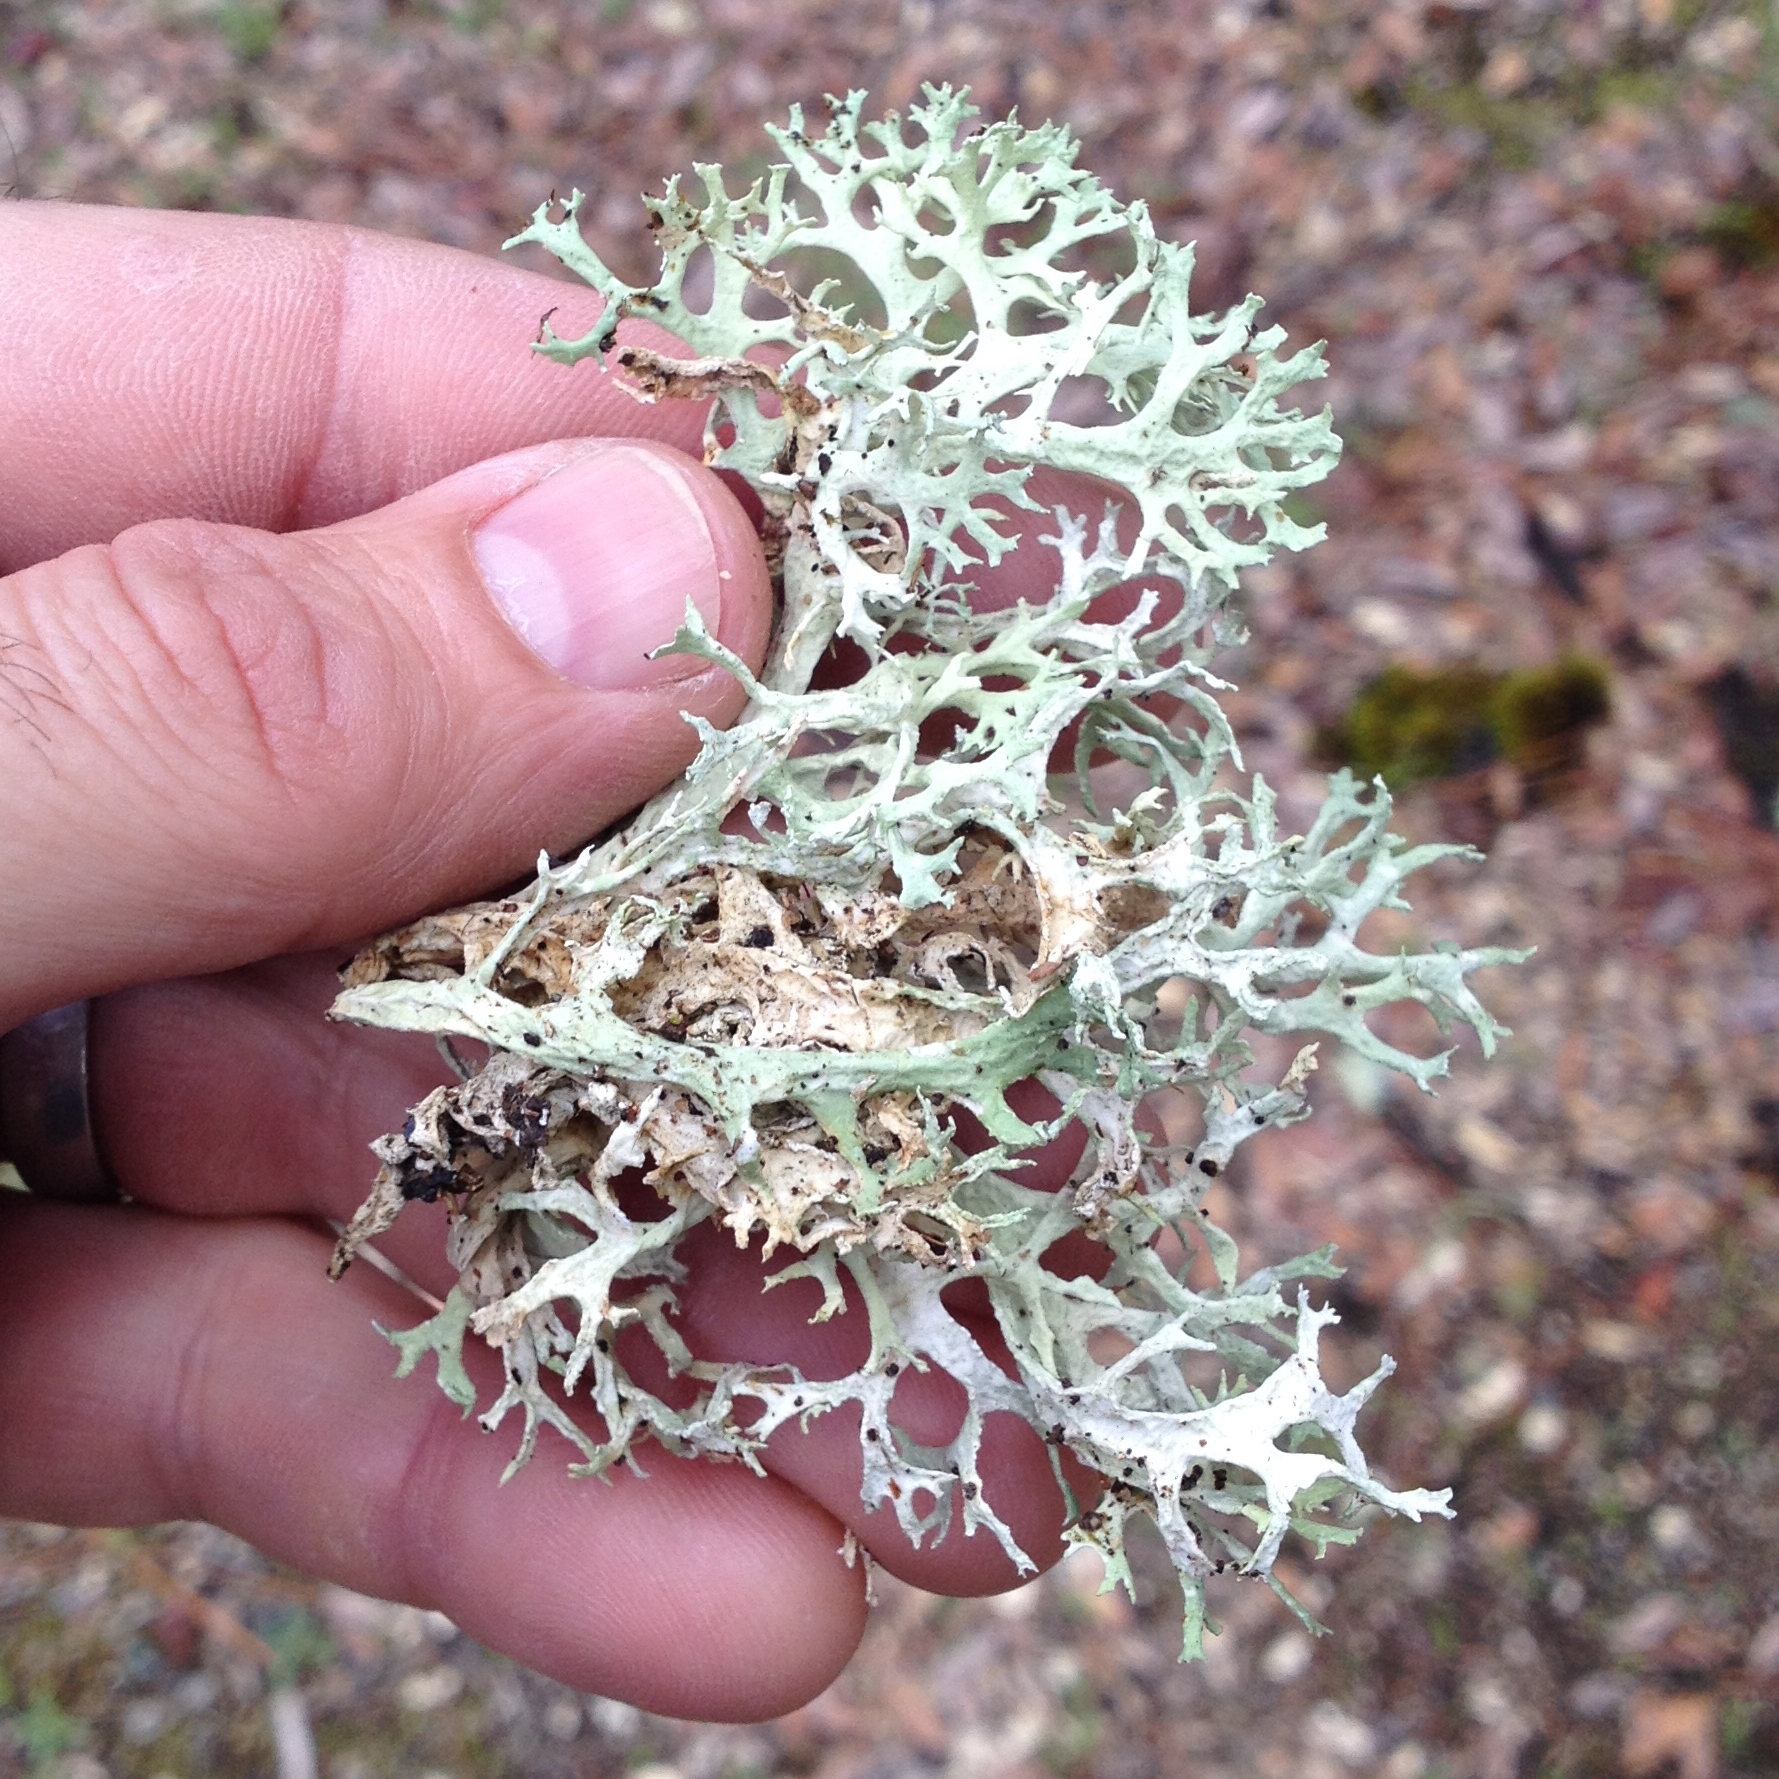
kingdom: Fungi
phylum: Ascomycota
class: Lecanoromycetes
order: Lecanorales
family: Parmeliaceae
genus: Evernia
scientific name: Evernia prunastri
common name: Oak moss
